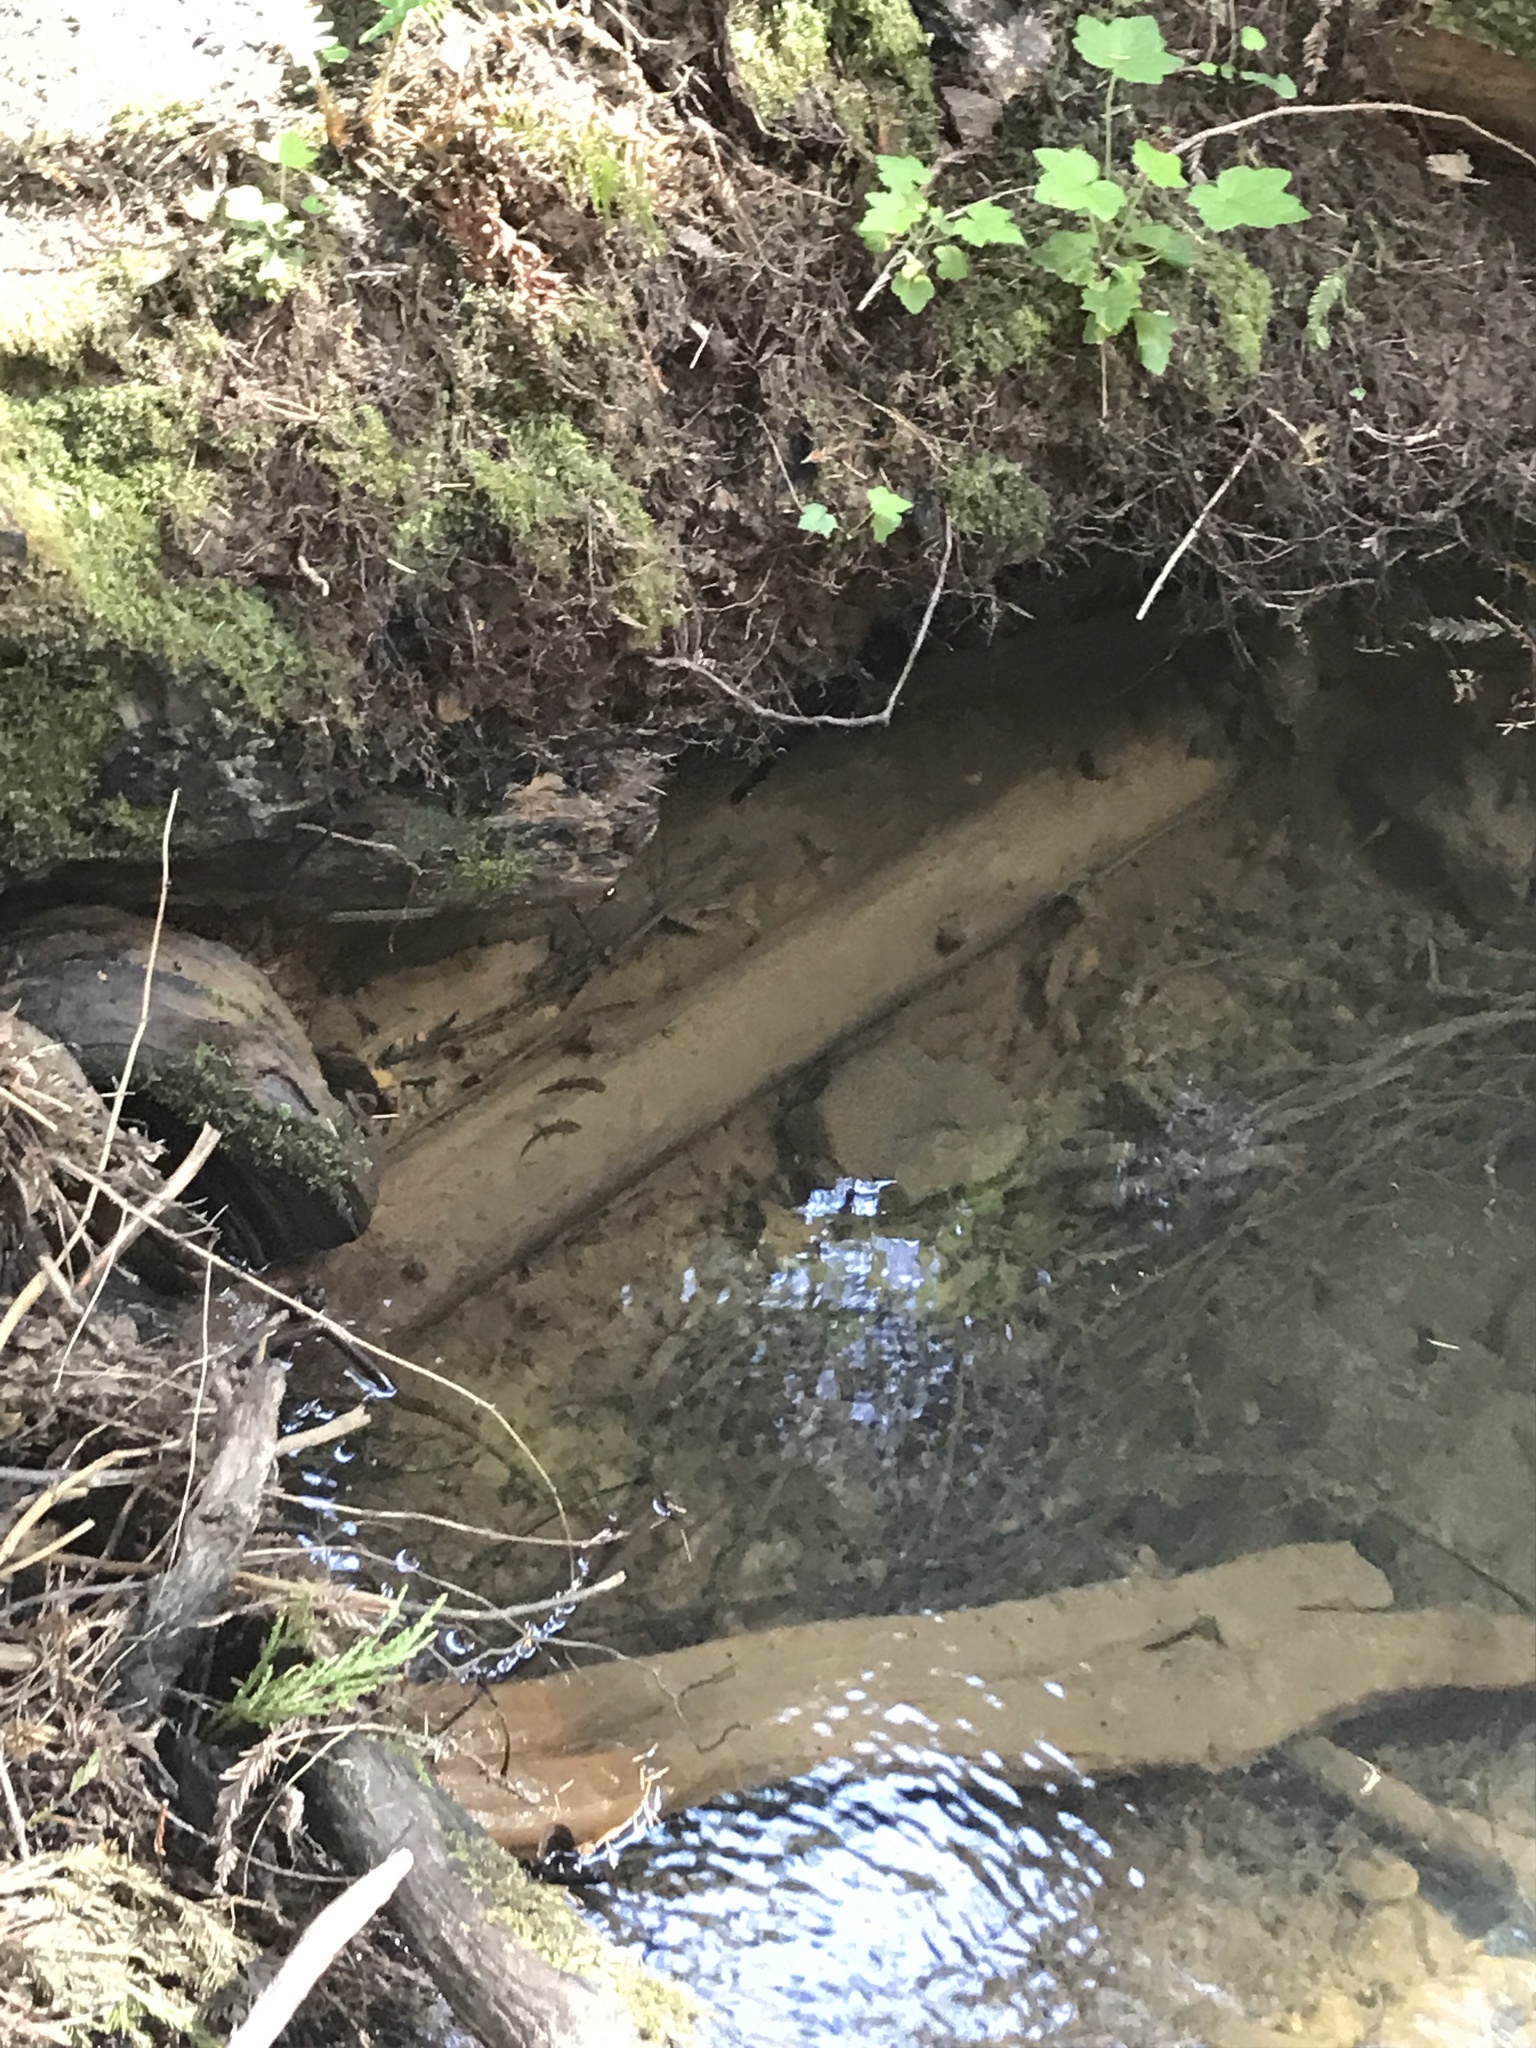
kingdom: Animalia
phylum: Chordata
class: Amphibia
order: Caudata
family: Ambystomatidae
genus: Dicamptodon
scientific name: Dicamptodon ensatus
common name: California giant salamander
